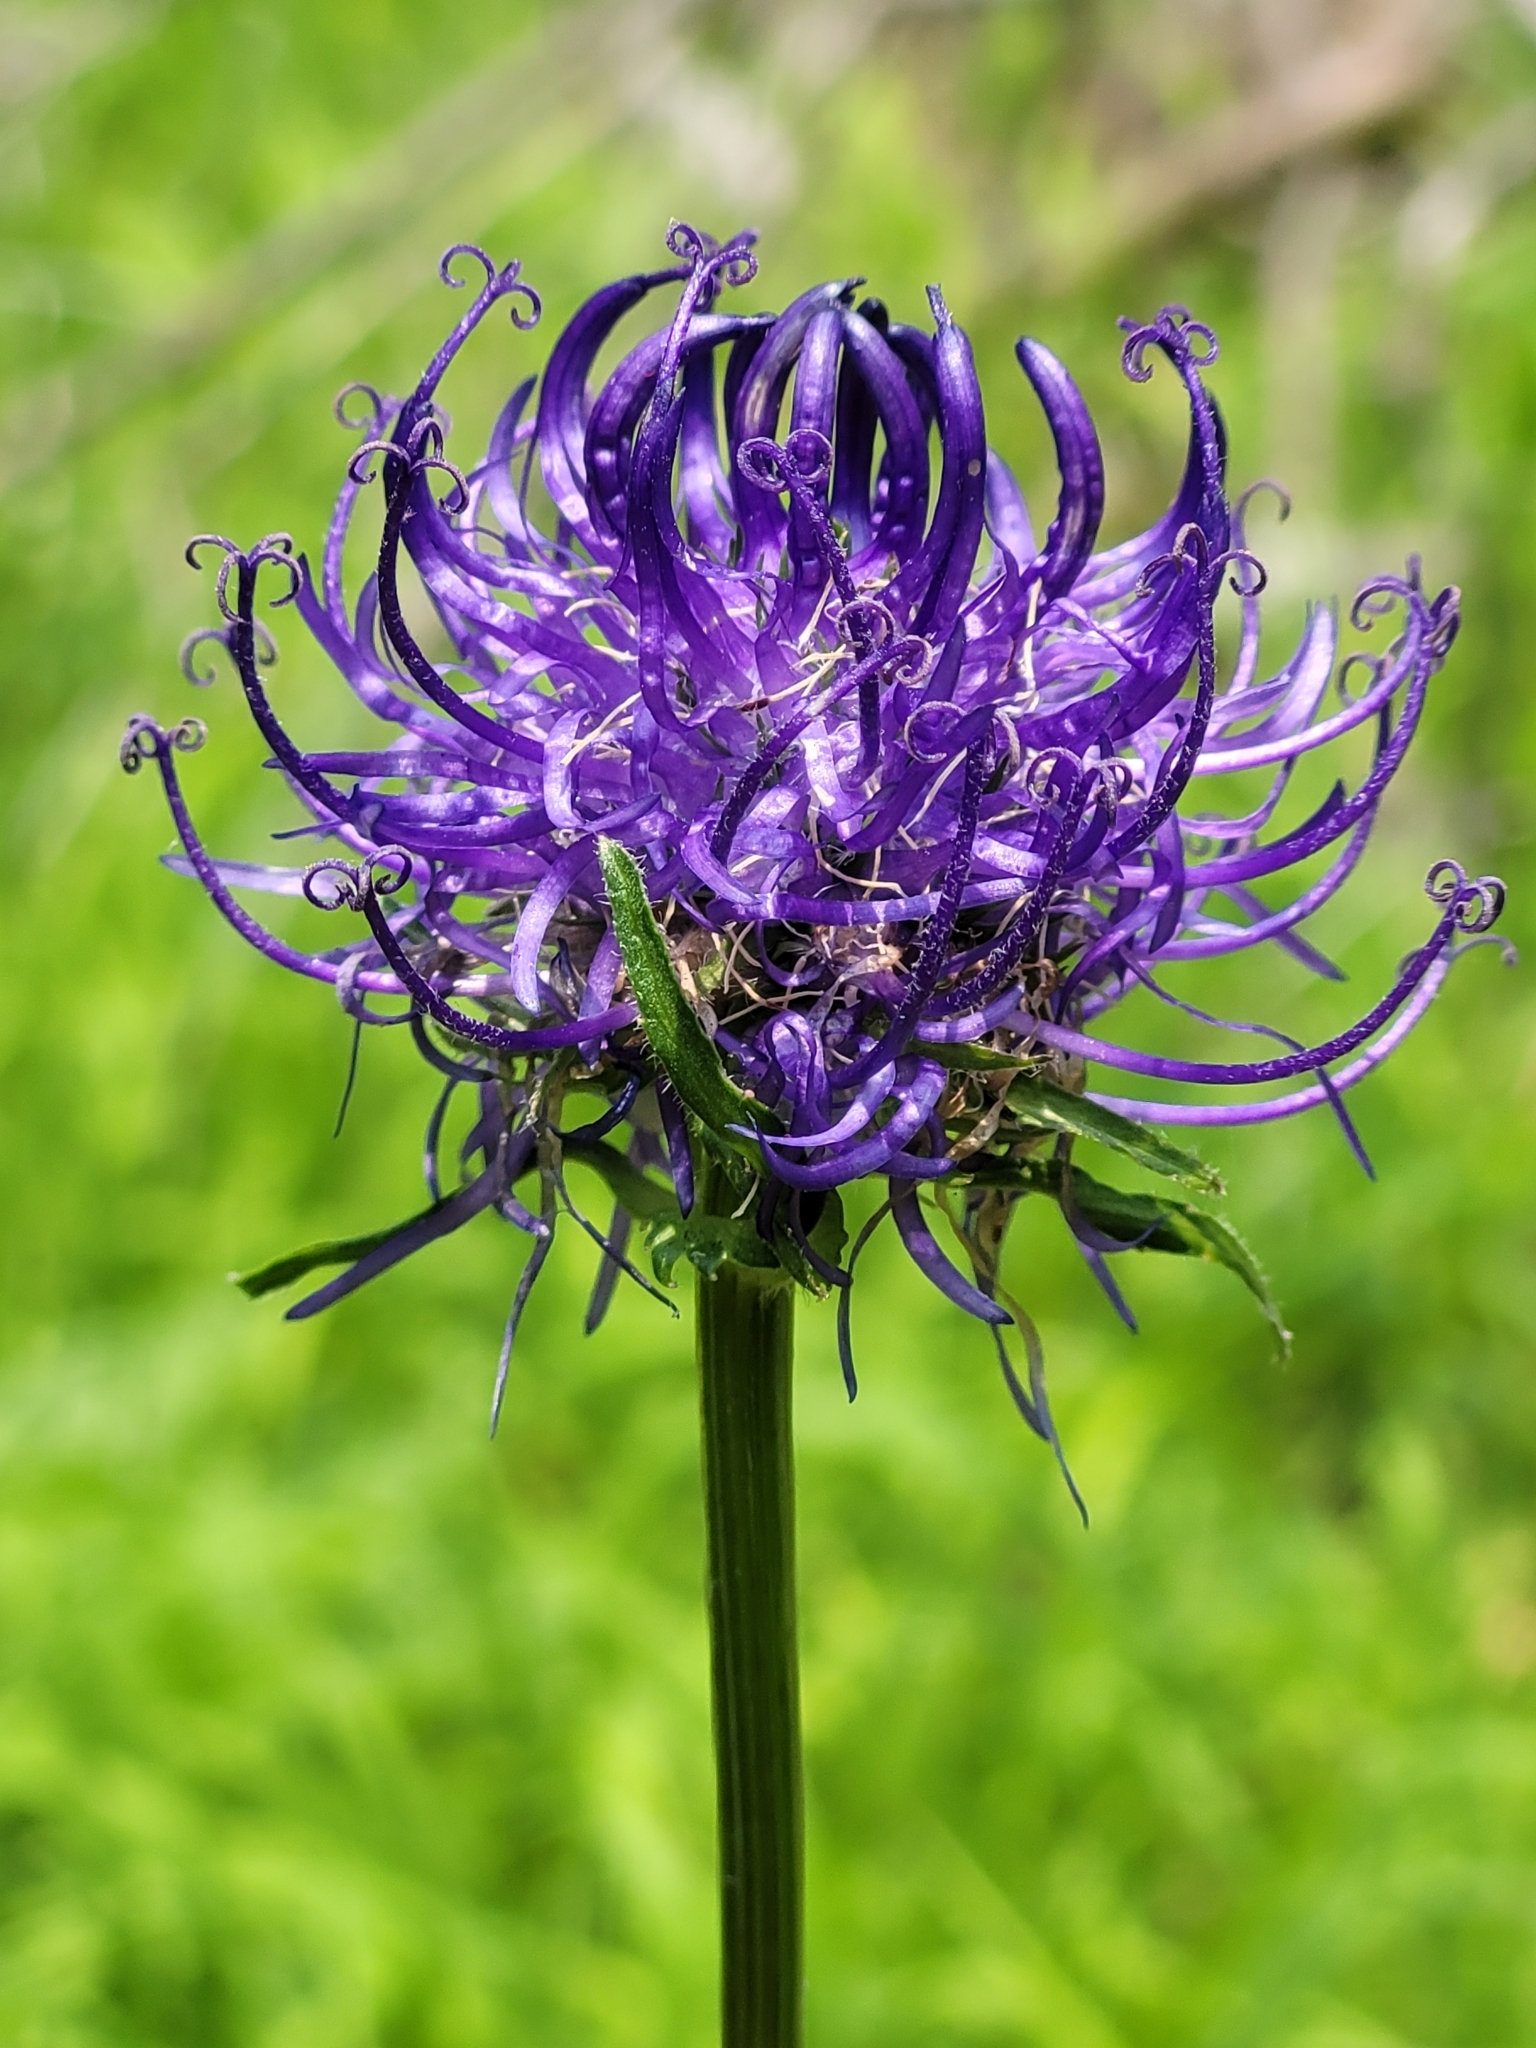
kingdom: Plantae
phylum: Tracheophyta
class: Magnoliopsida
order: Asterales
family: Campanulaceae
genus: Phyteuma
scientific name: Phyteuma orbiculare
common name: Round-headed rampion
